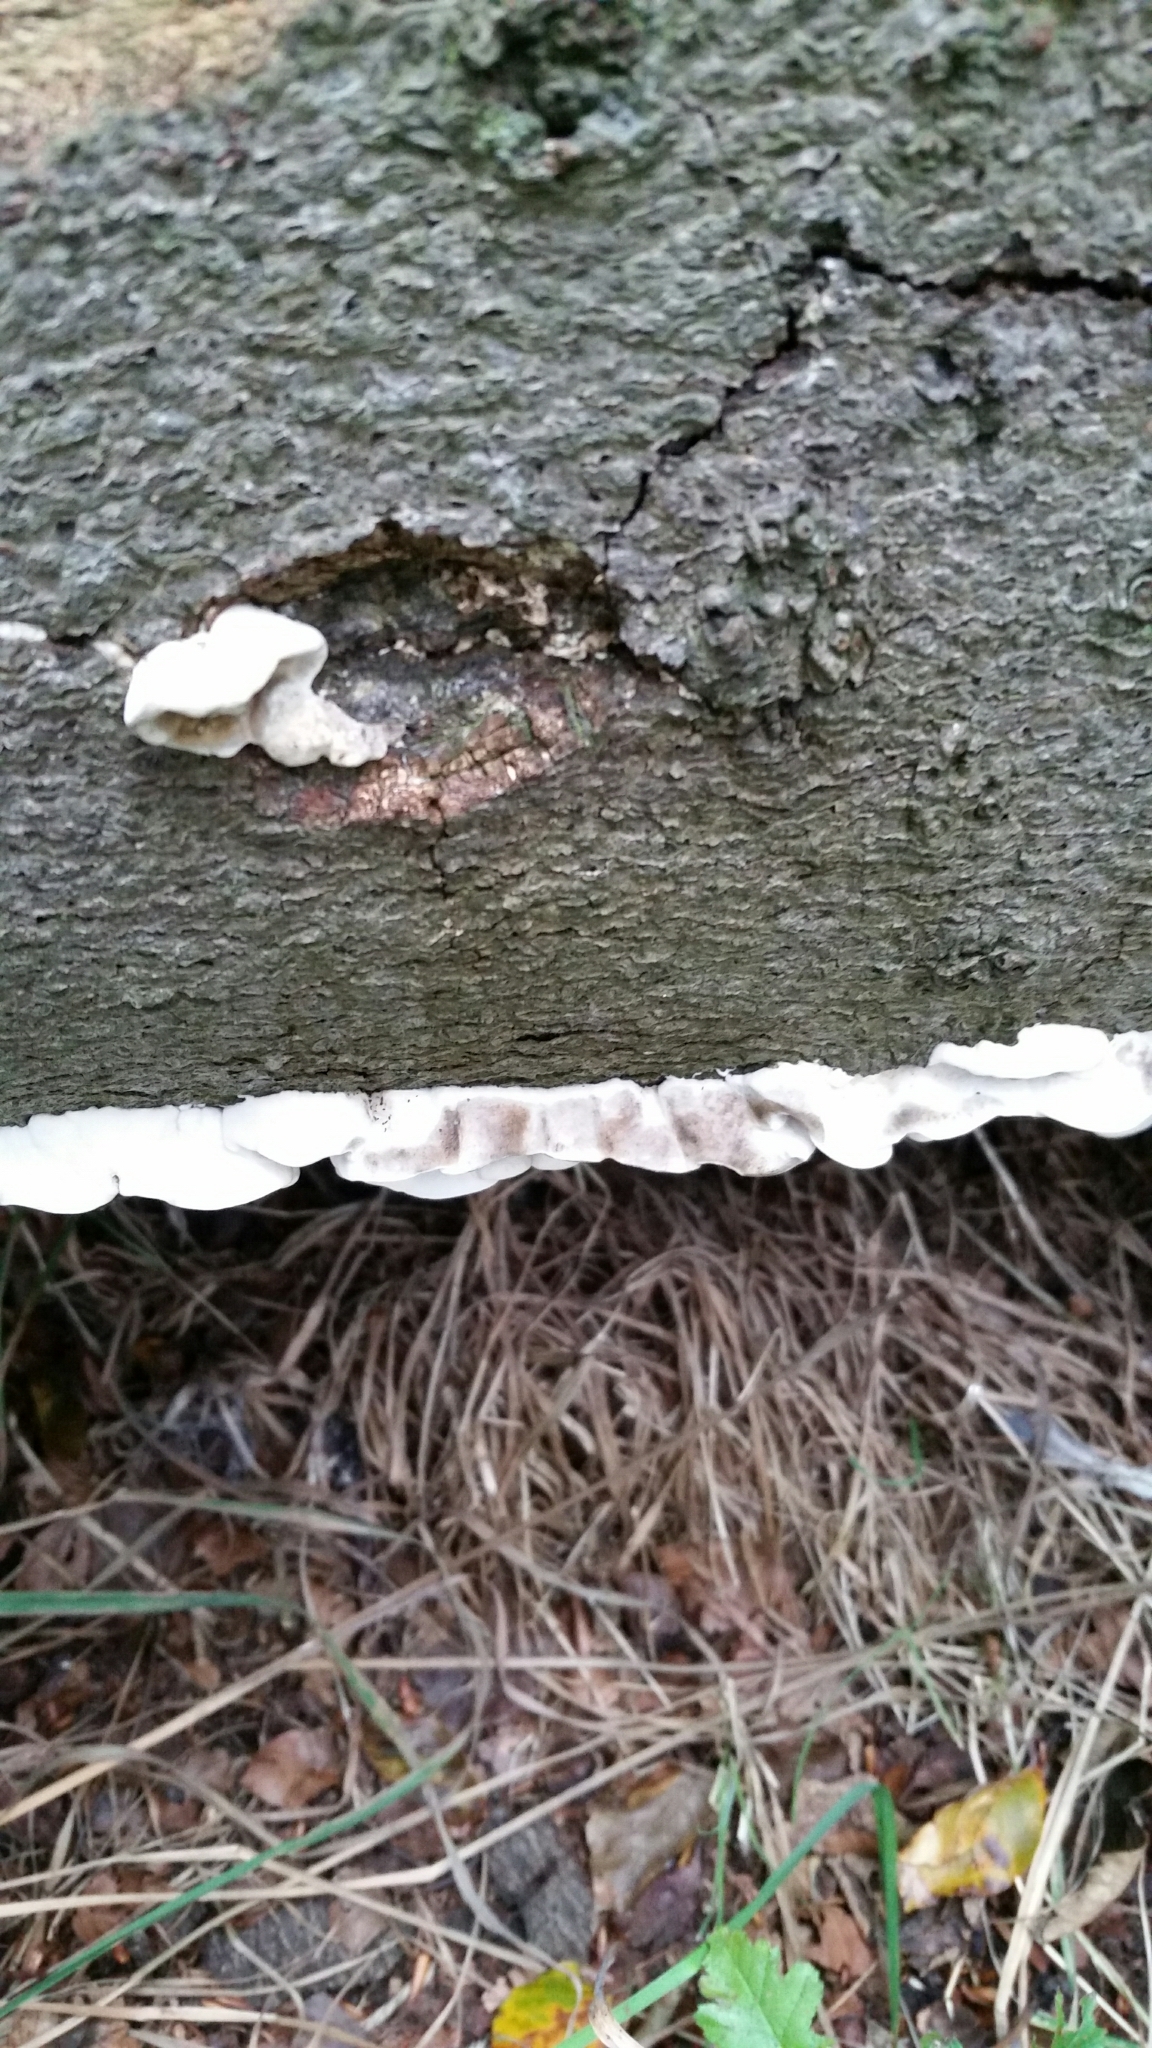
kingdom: Fungi
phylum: Basidiomycota
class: Agaricomycetes
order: Polyporales
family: Phanerochaetaceae
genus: Bjerkandera
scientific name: Bjerkandera adusta
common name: Smoky bracket
